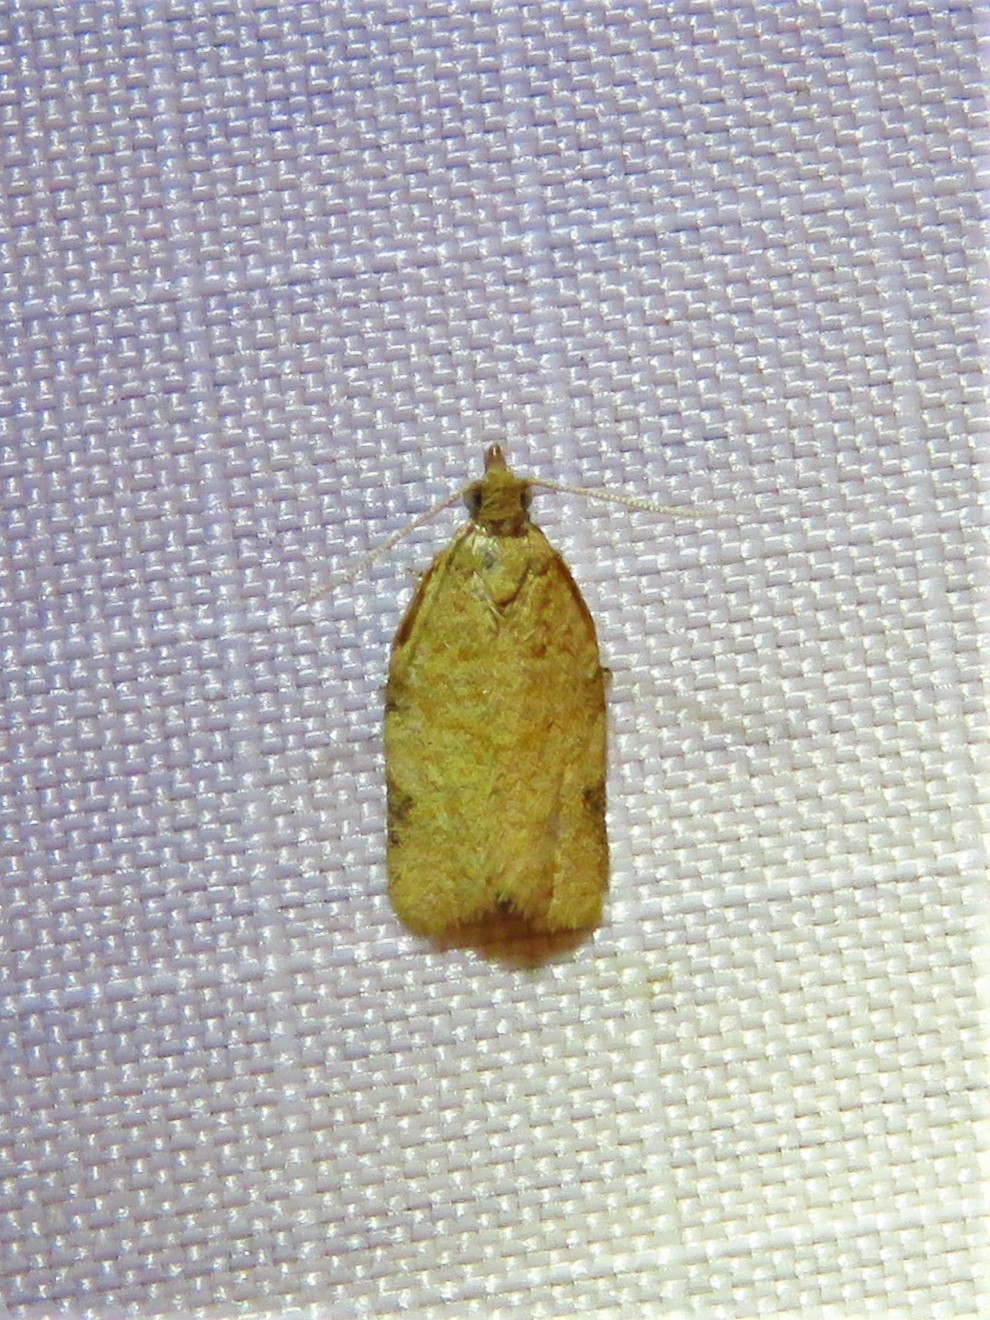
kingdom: Animalia
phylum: Arthropoda
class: Insecta
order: Lepidoptera
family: Tortricidae
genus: Clepsis
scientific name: Clepsis virescana
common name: Greenish apple moth
